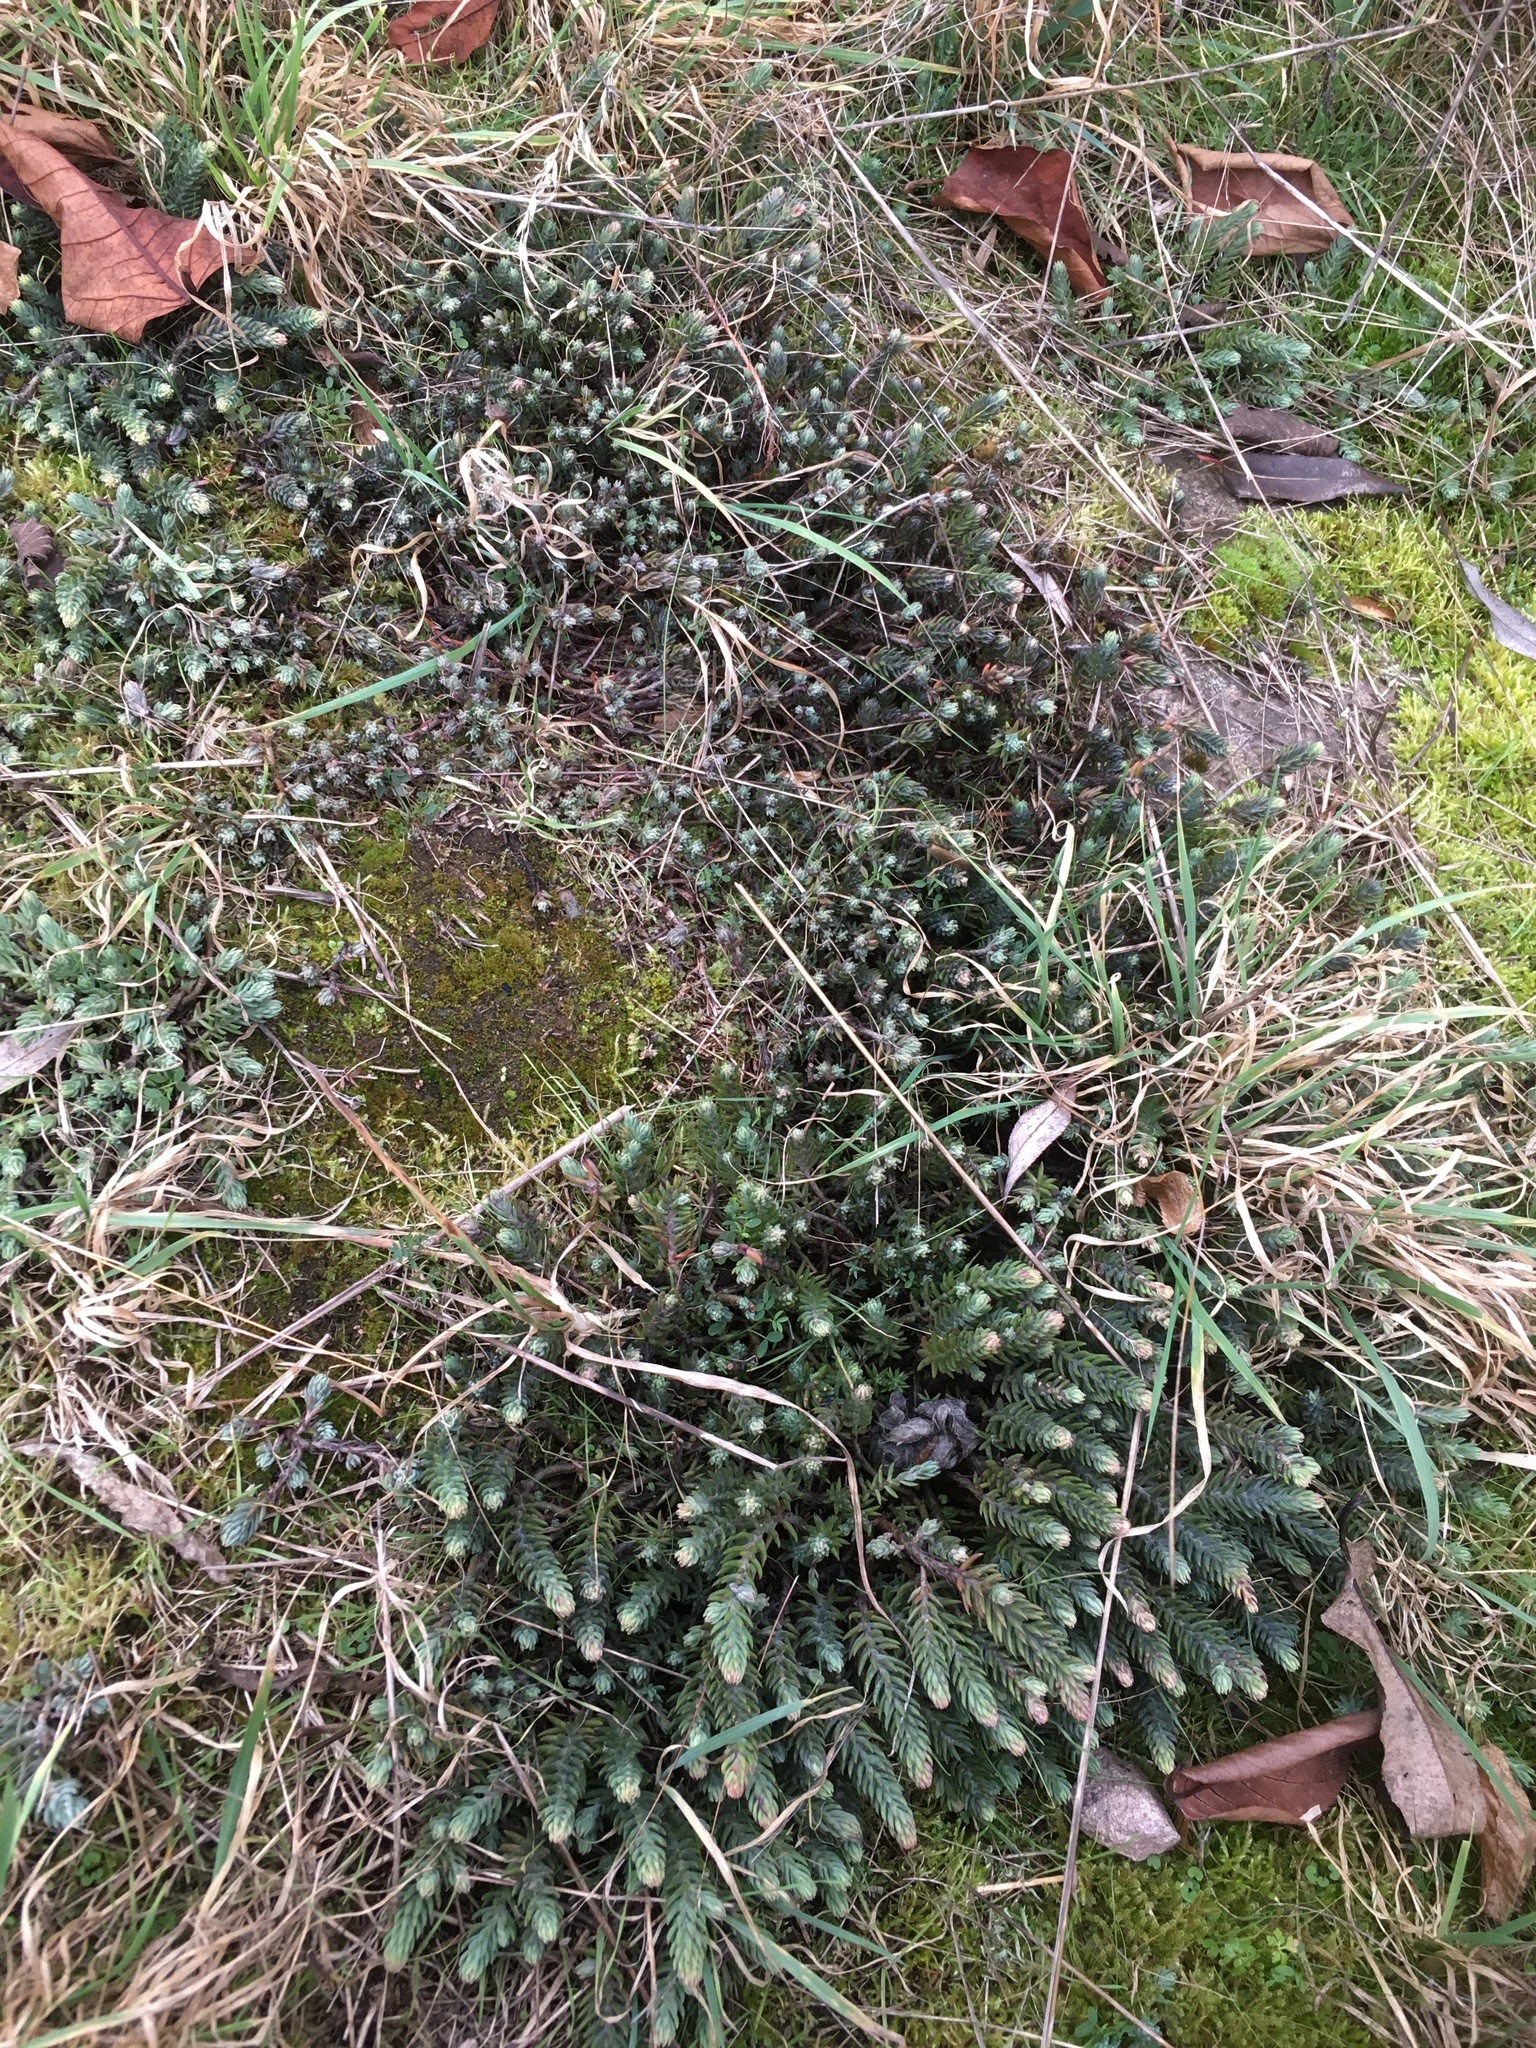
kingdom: Plantae
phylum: Tracheophyta
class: Magnoliopsida
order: Saxifragales
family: Crassulaceae
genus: Petrosedum
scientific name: Petrosedum rupestre
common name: Jenny's stonecrop
